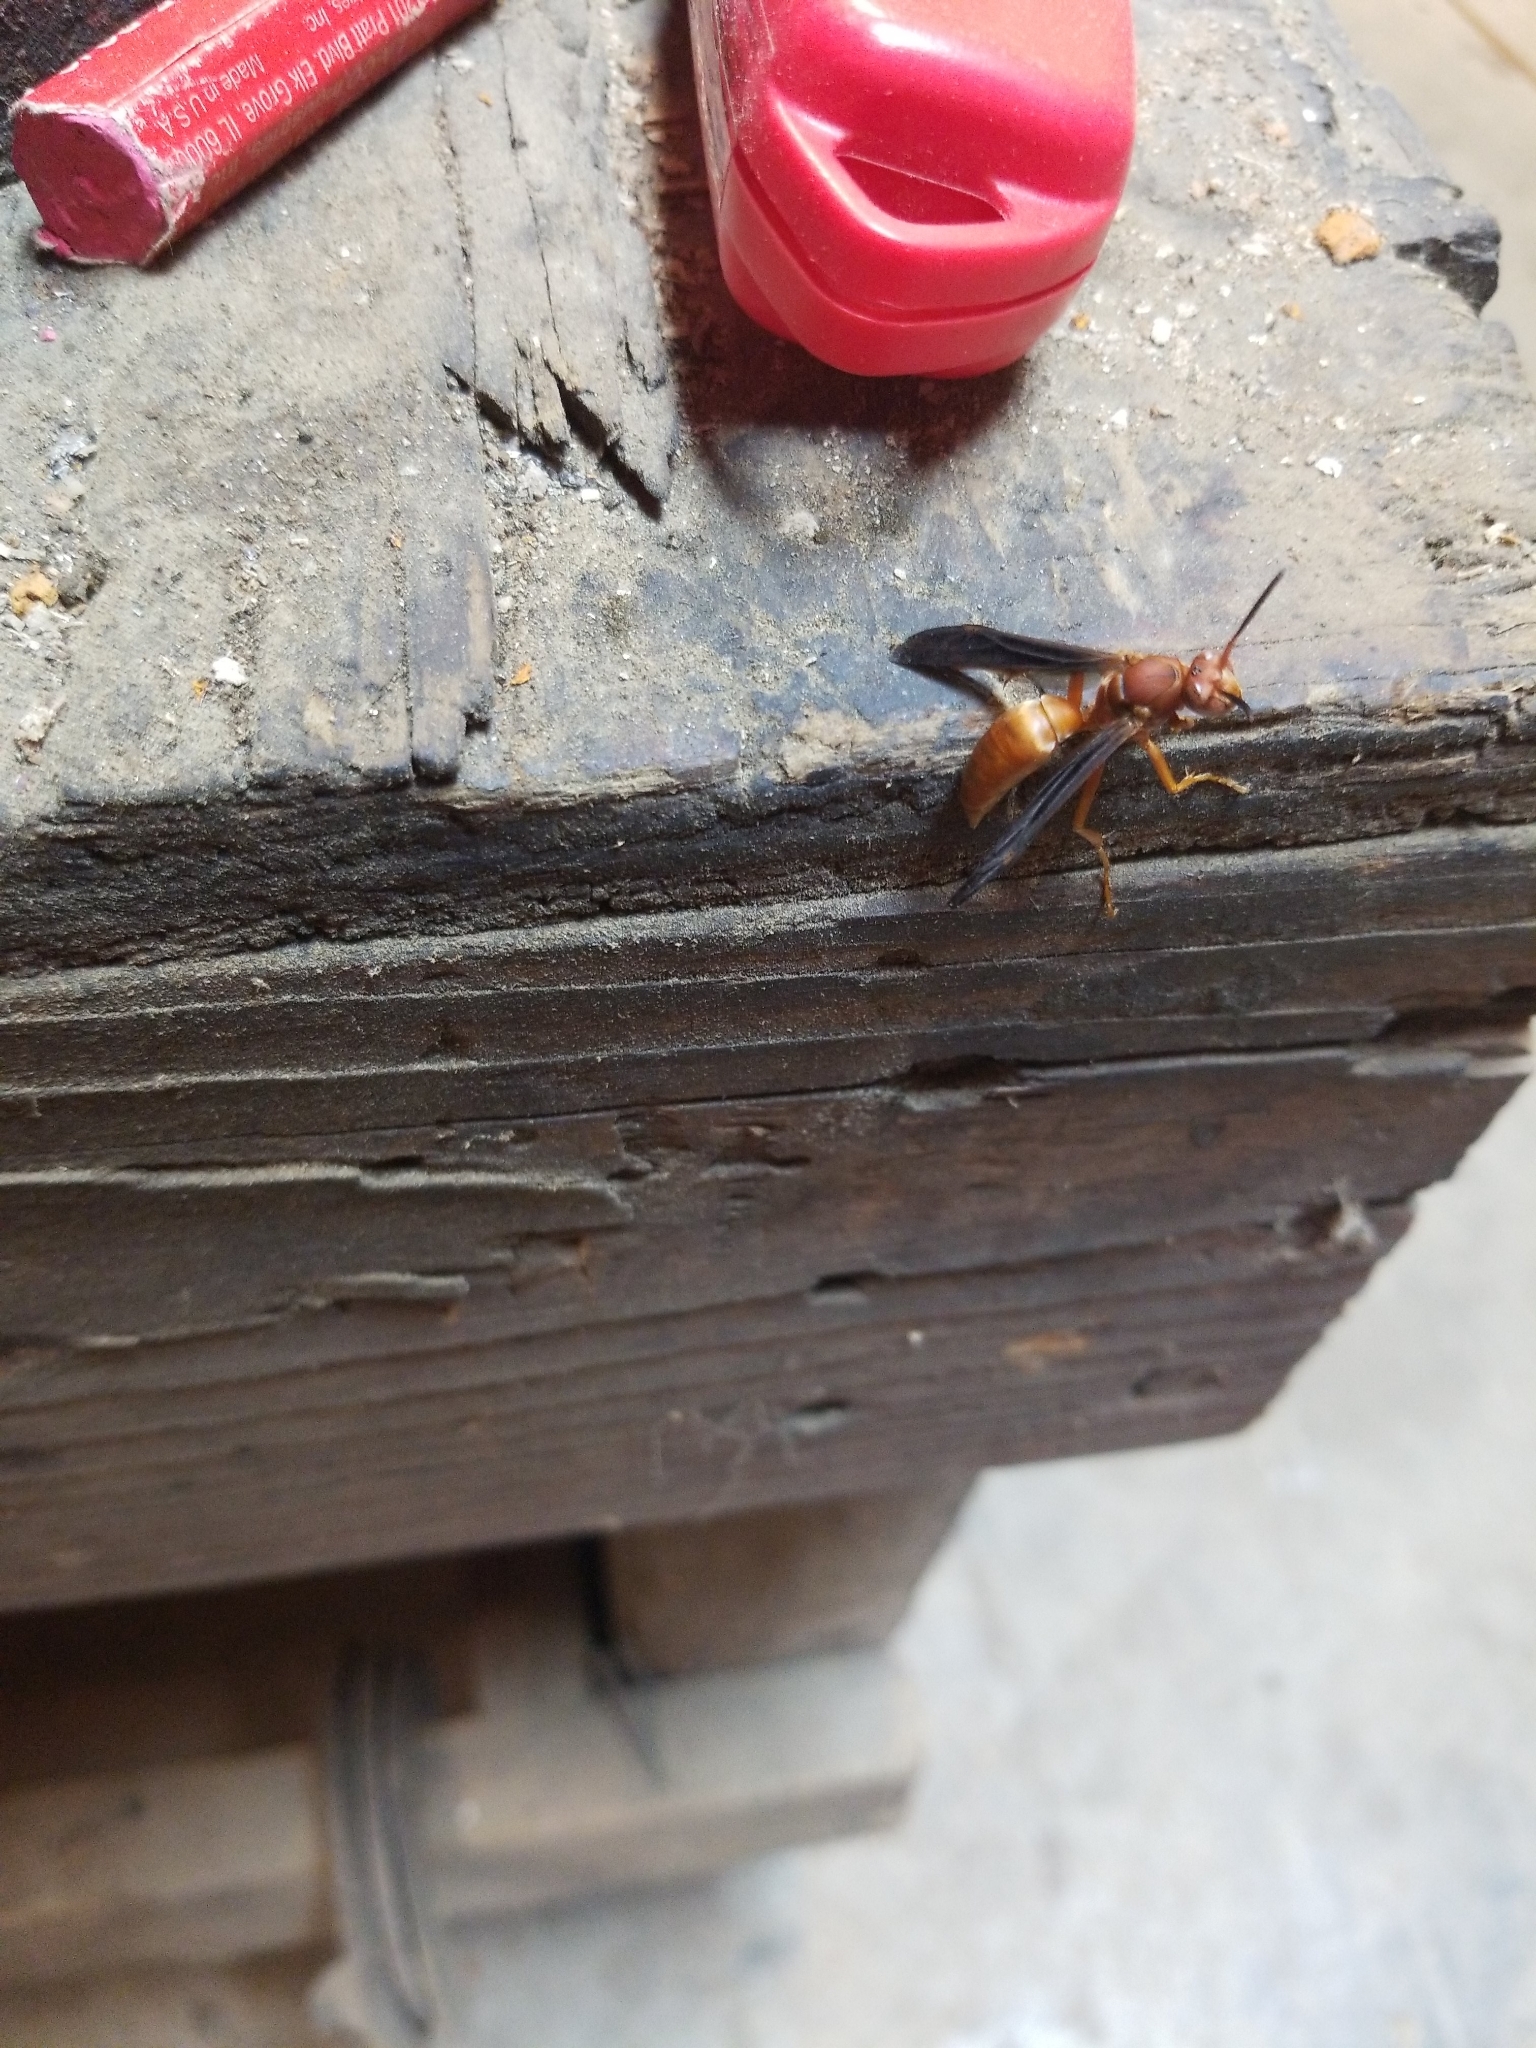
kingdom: Animalia
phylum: Arthropoda
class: Insecta
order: Hymenoptera
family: Vespidae
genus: Fuscopolistes
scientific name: Fuscopolistes
